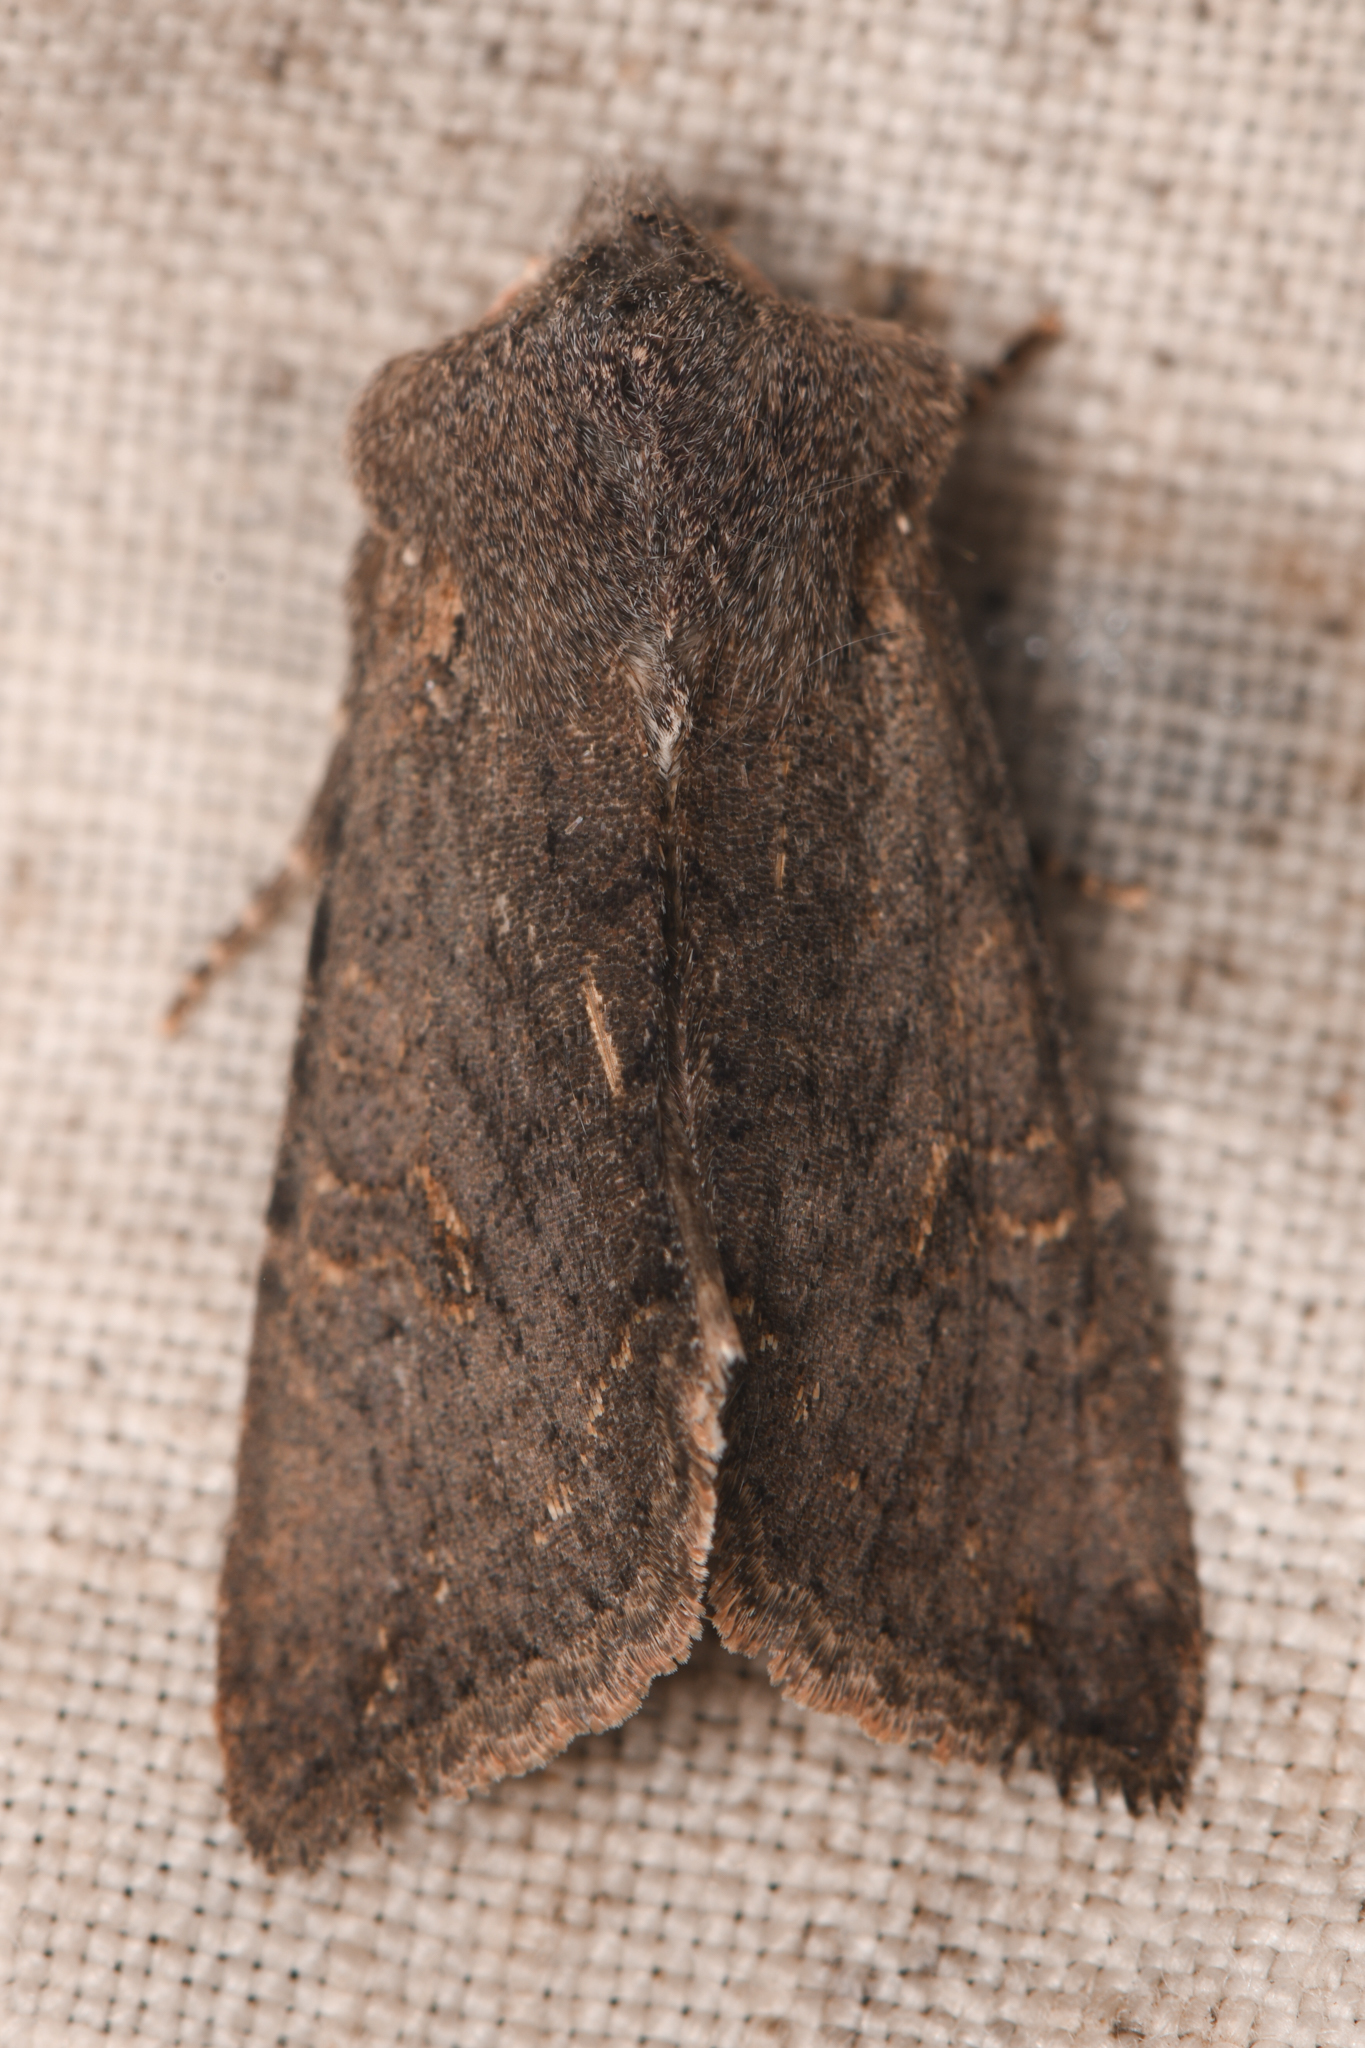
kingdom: Animalia
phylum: Arthropoda
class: Insecta
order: Lepidoptera
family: Noctuidae
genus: Orthosia
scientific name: Orthosia erythrolita
